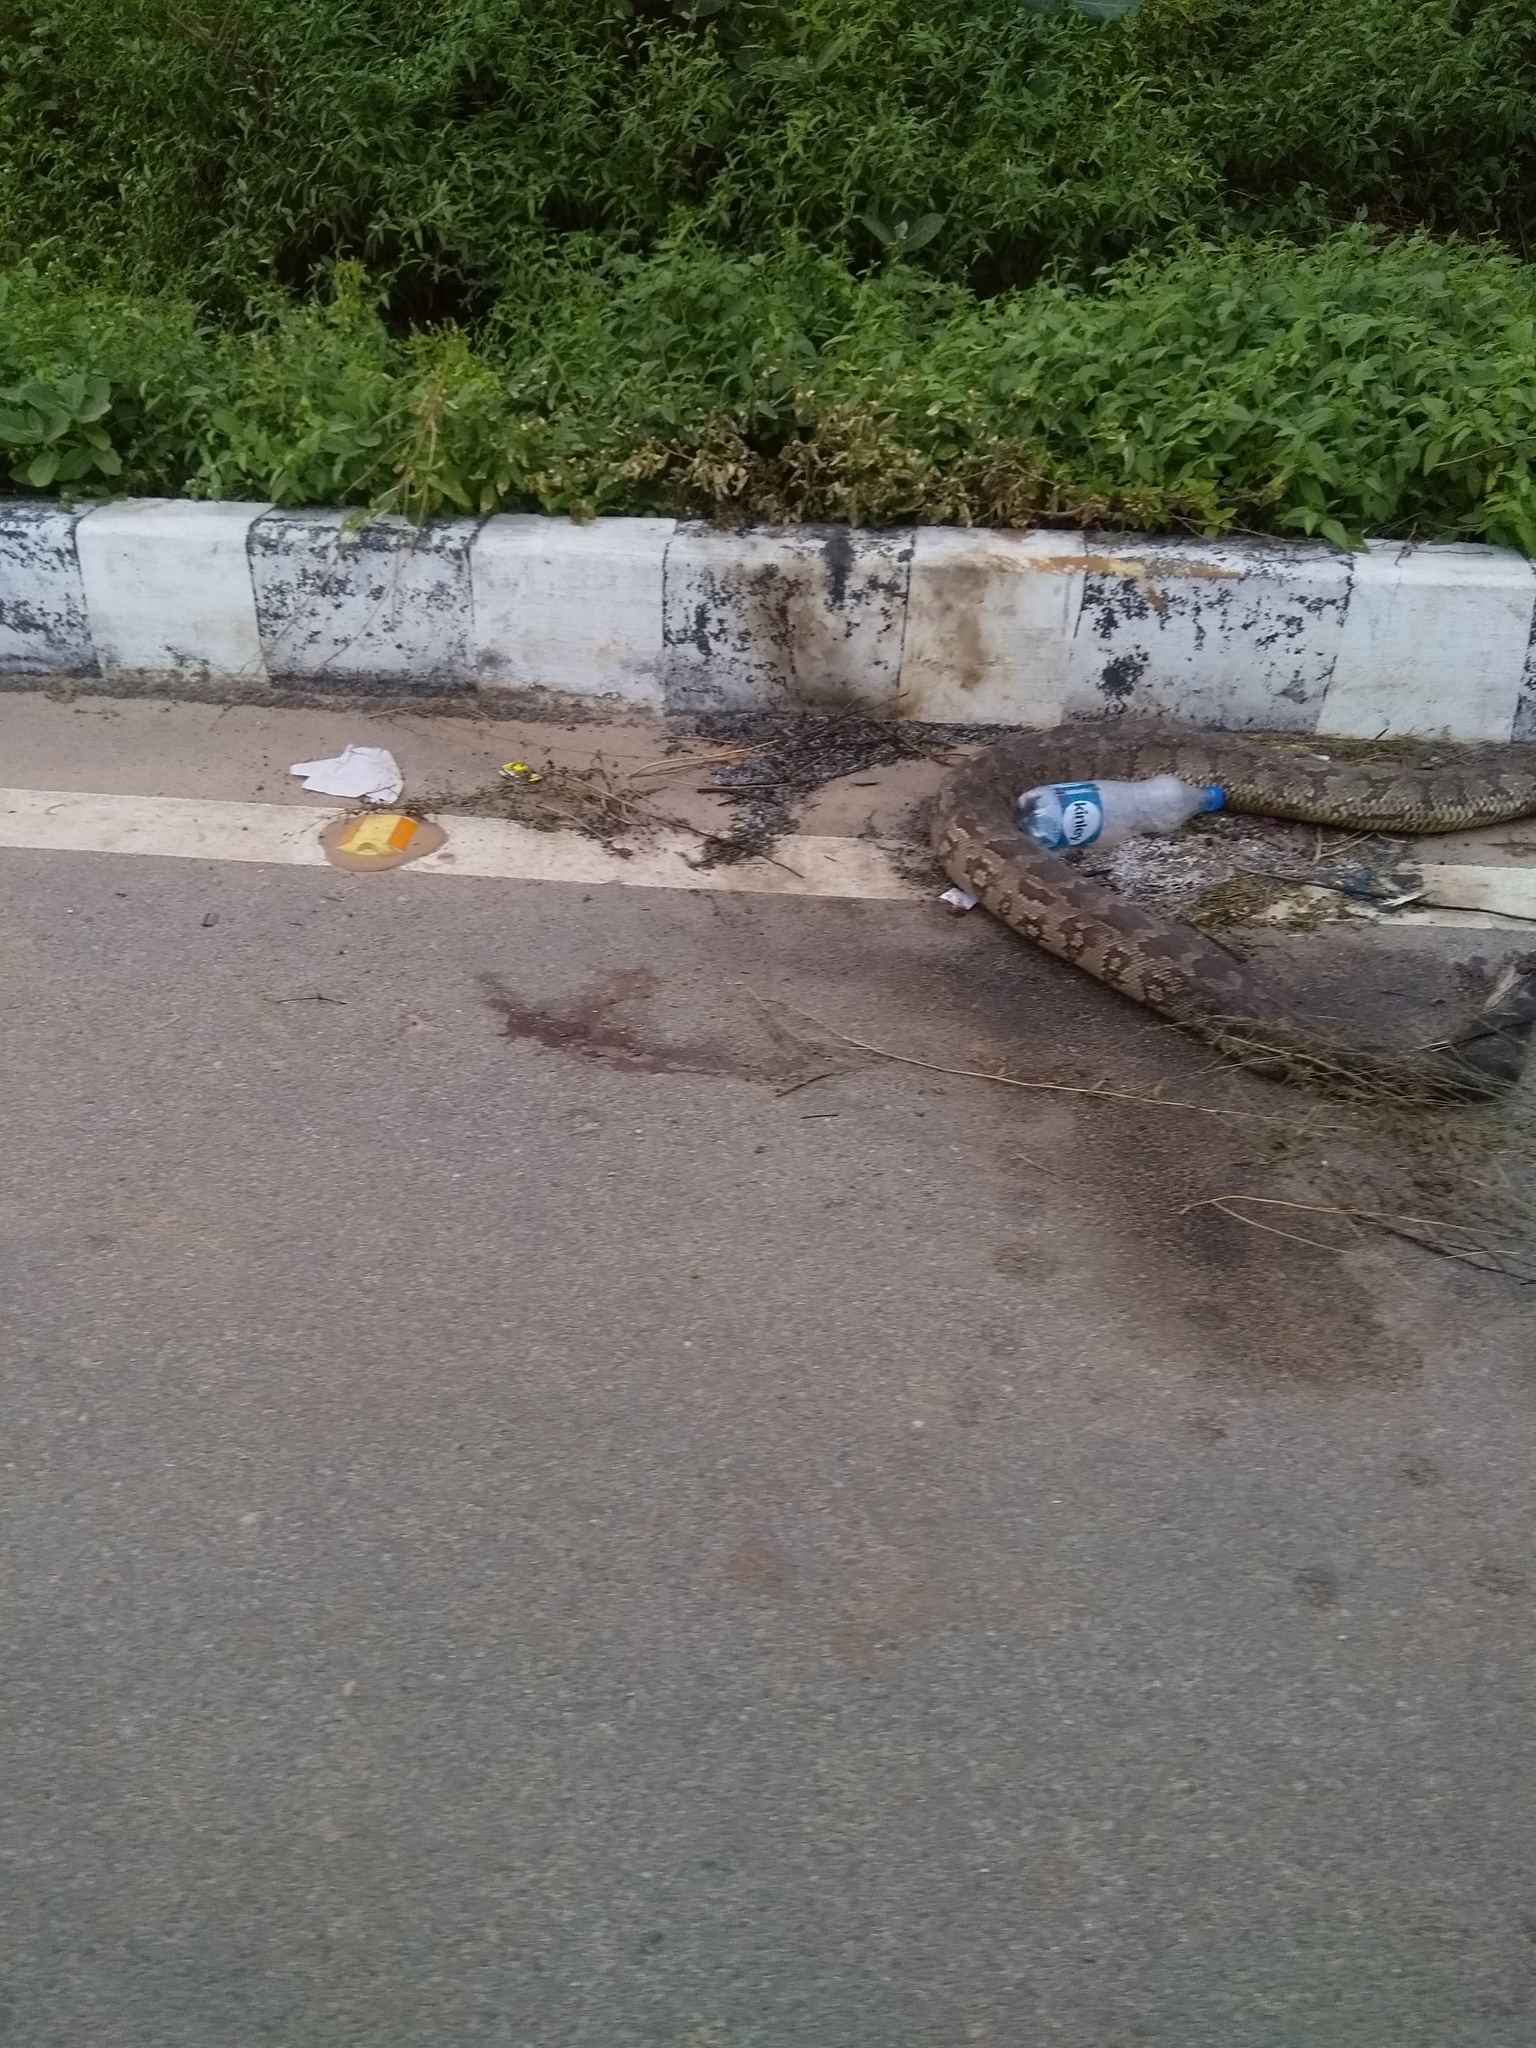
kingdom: Animalia
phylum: Chordata
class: Squamata
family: Pythonidae
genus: Python
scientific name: Python molurus
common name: Indian rock python
